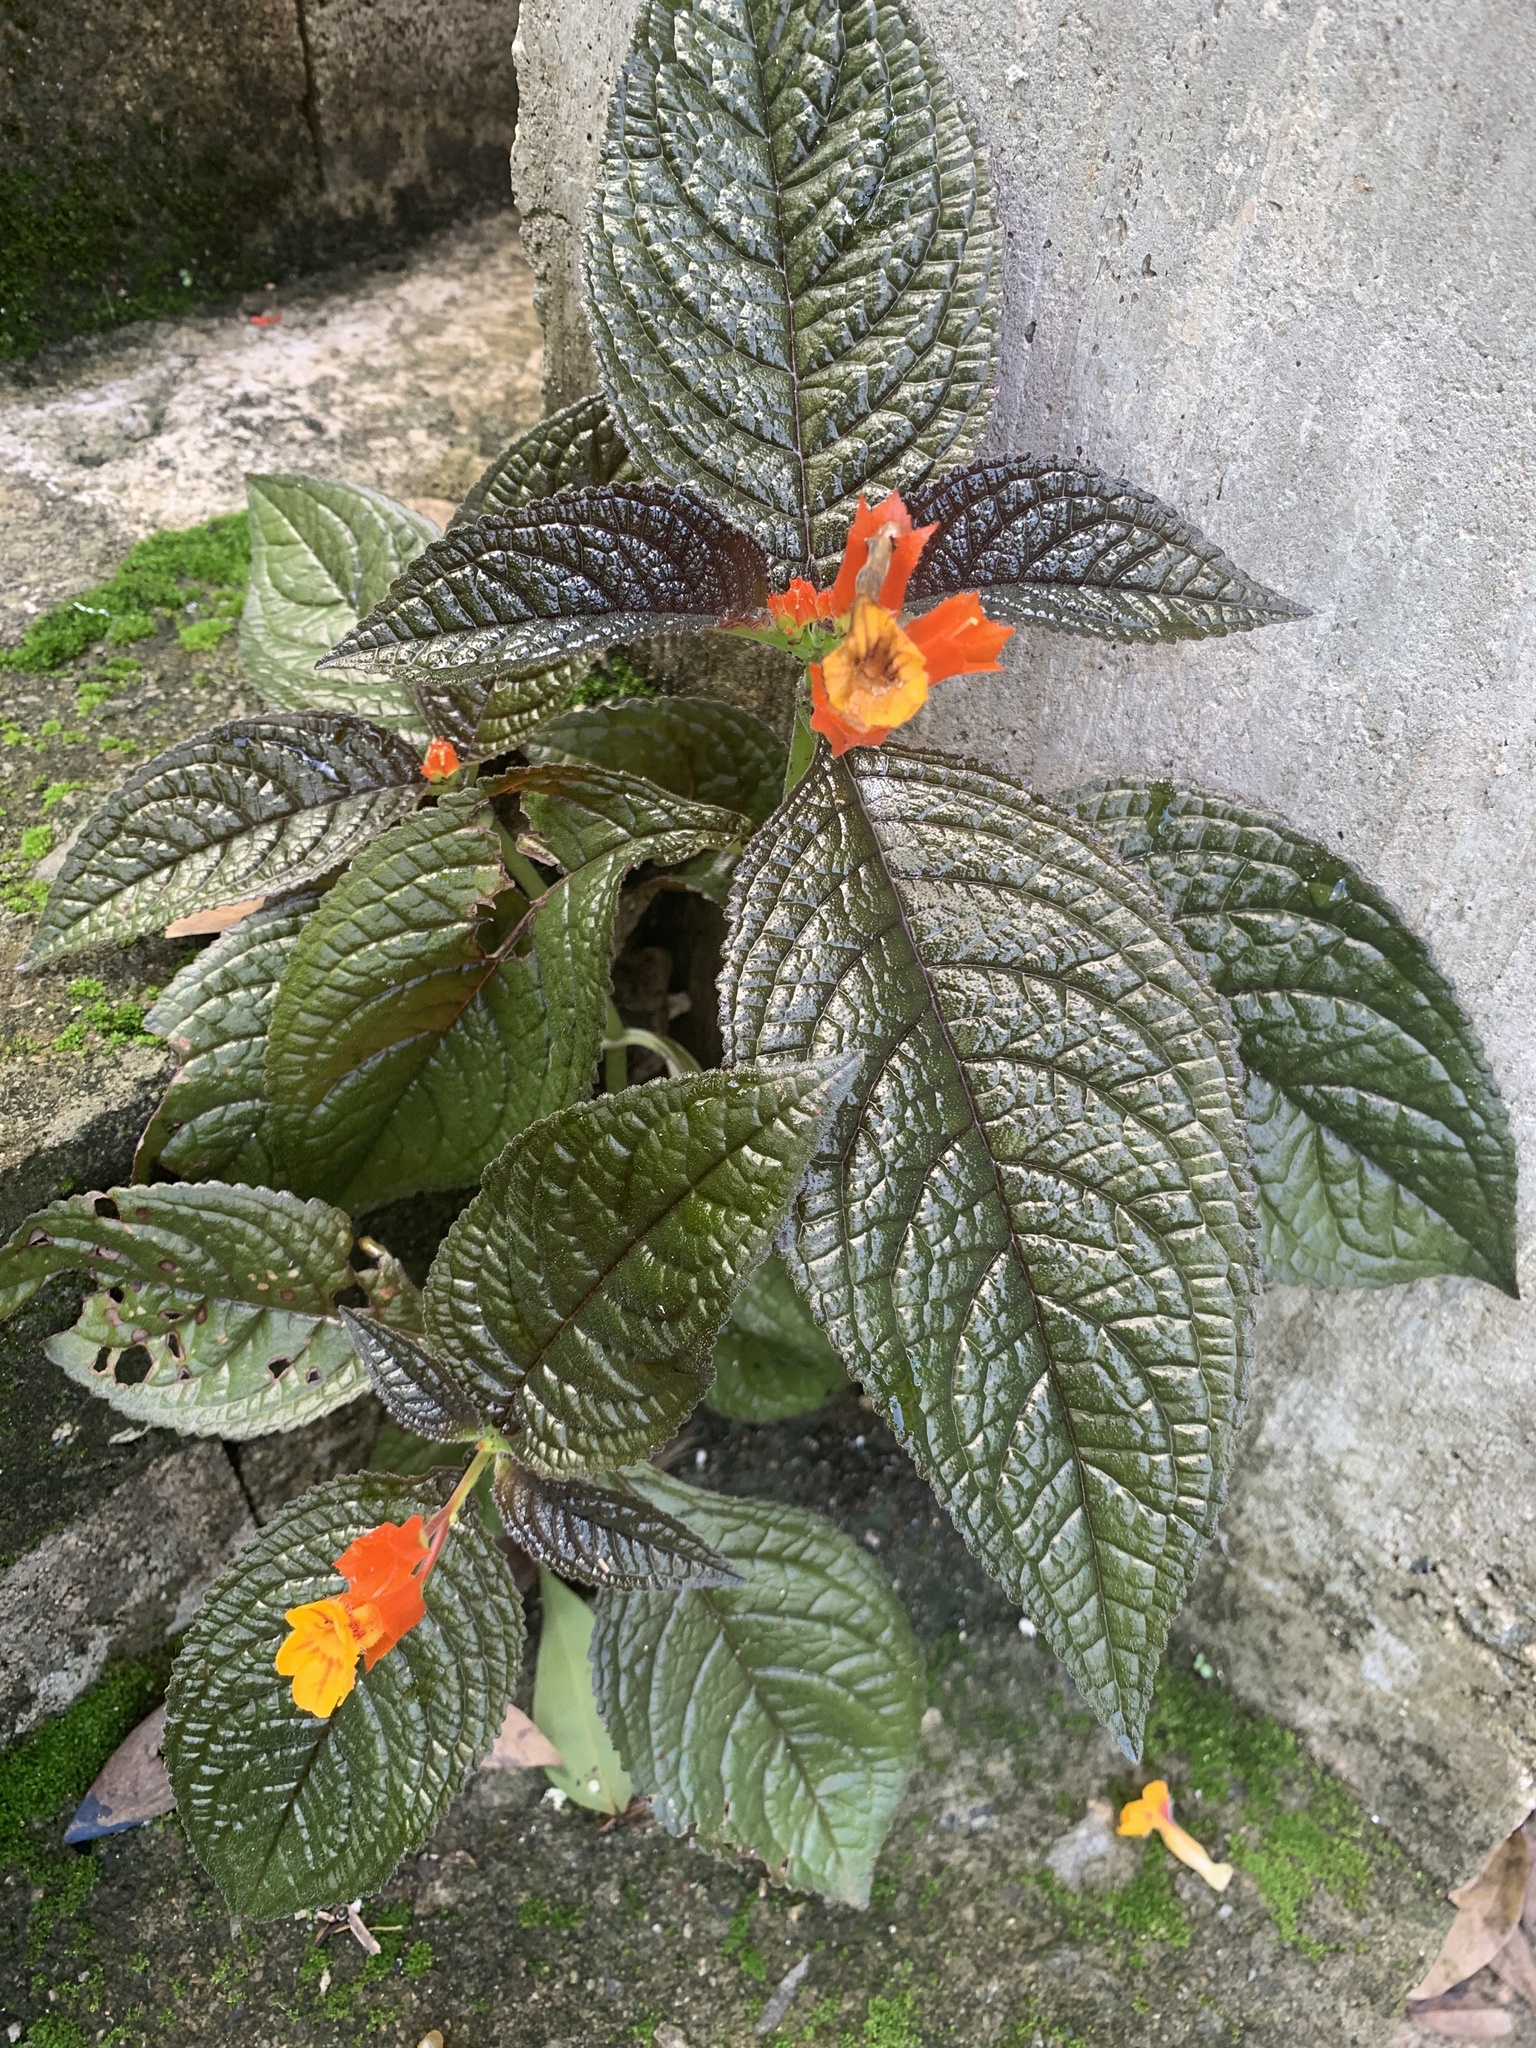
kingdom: Plantae
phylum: Tracheophyta
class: Magnoliopsida
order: Lamiales
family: Gesneriaceae
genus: Chrysothemis
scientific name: Chrysothemis pulchella
